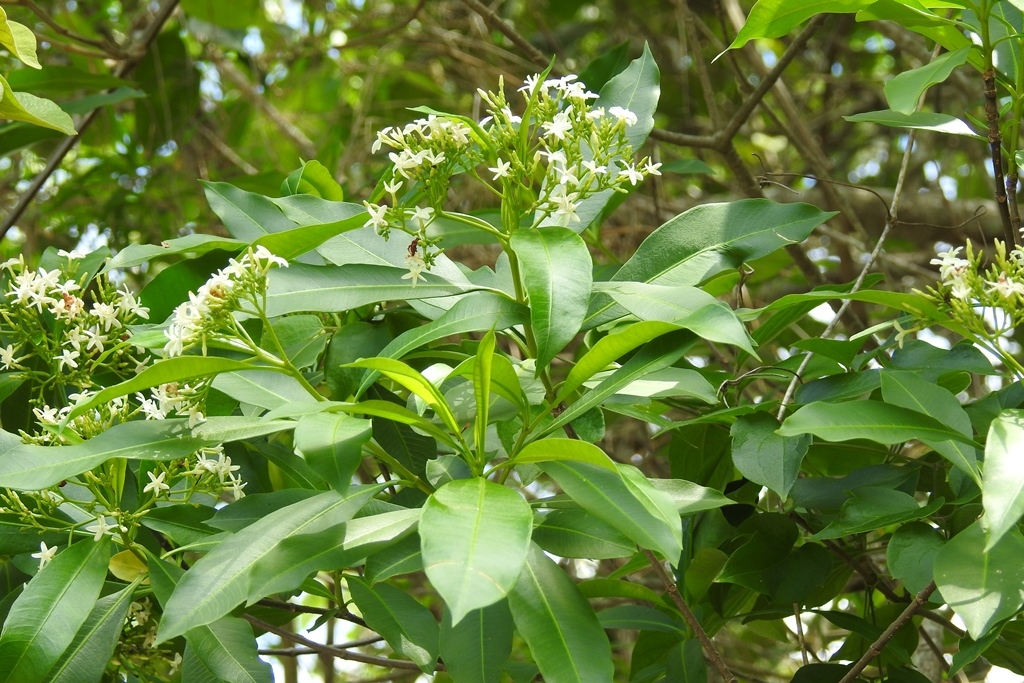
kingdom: Plantae
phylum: Tracheophyta
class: Magnoliopsida
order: Gentianales
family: Apocynaceae
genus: Tonduzia
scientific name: Tonduzia longifolia
